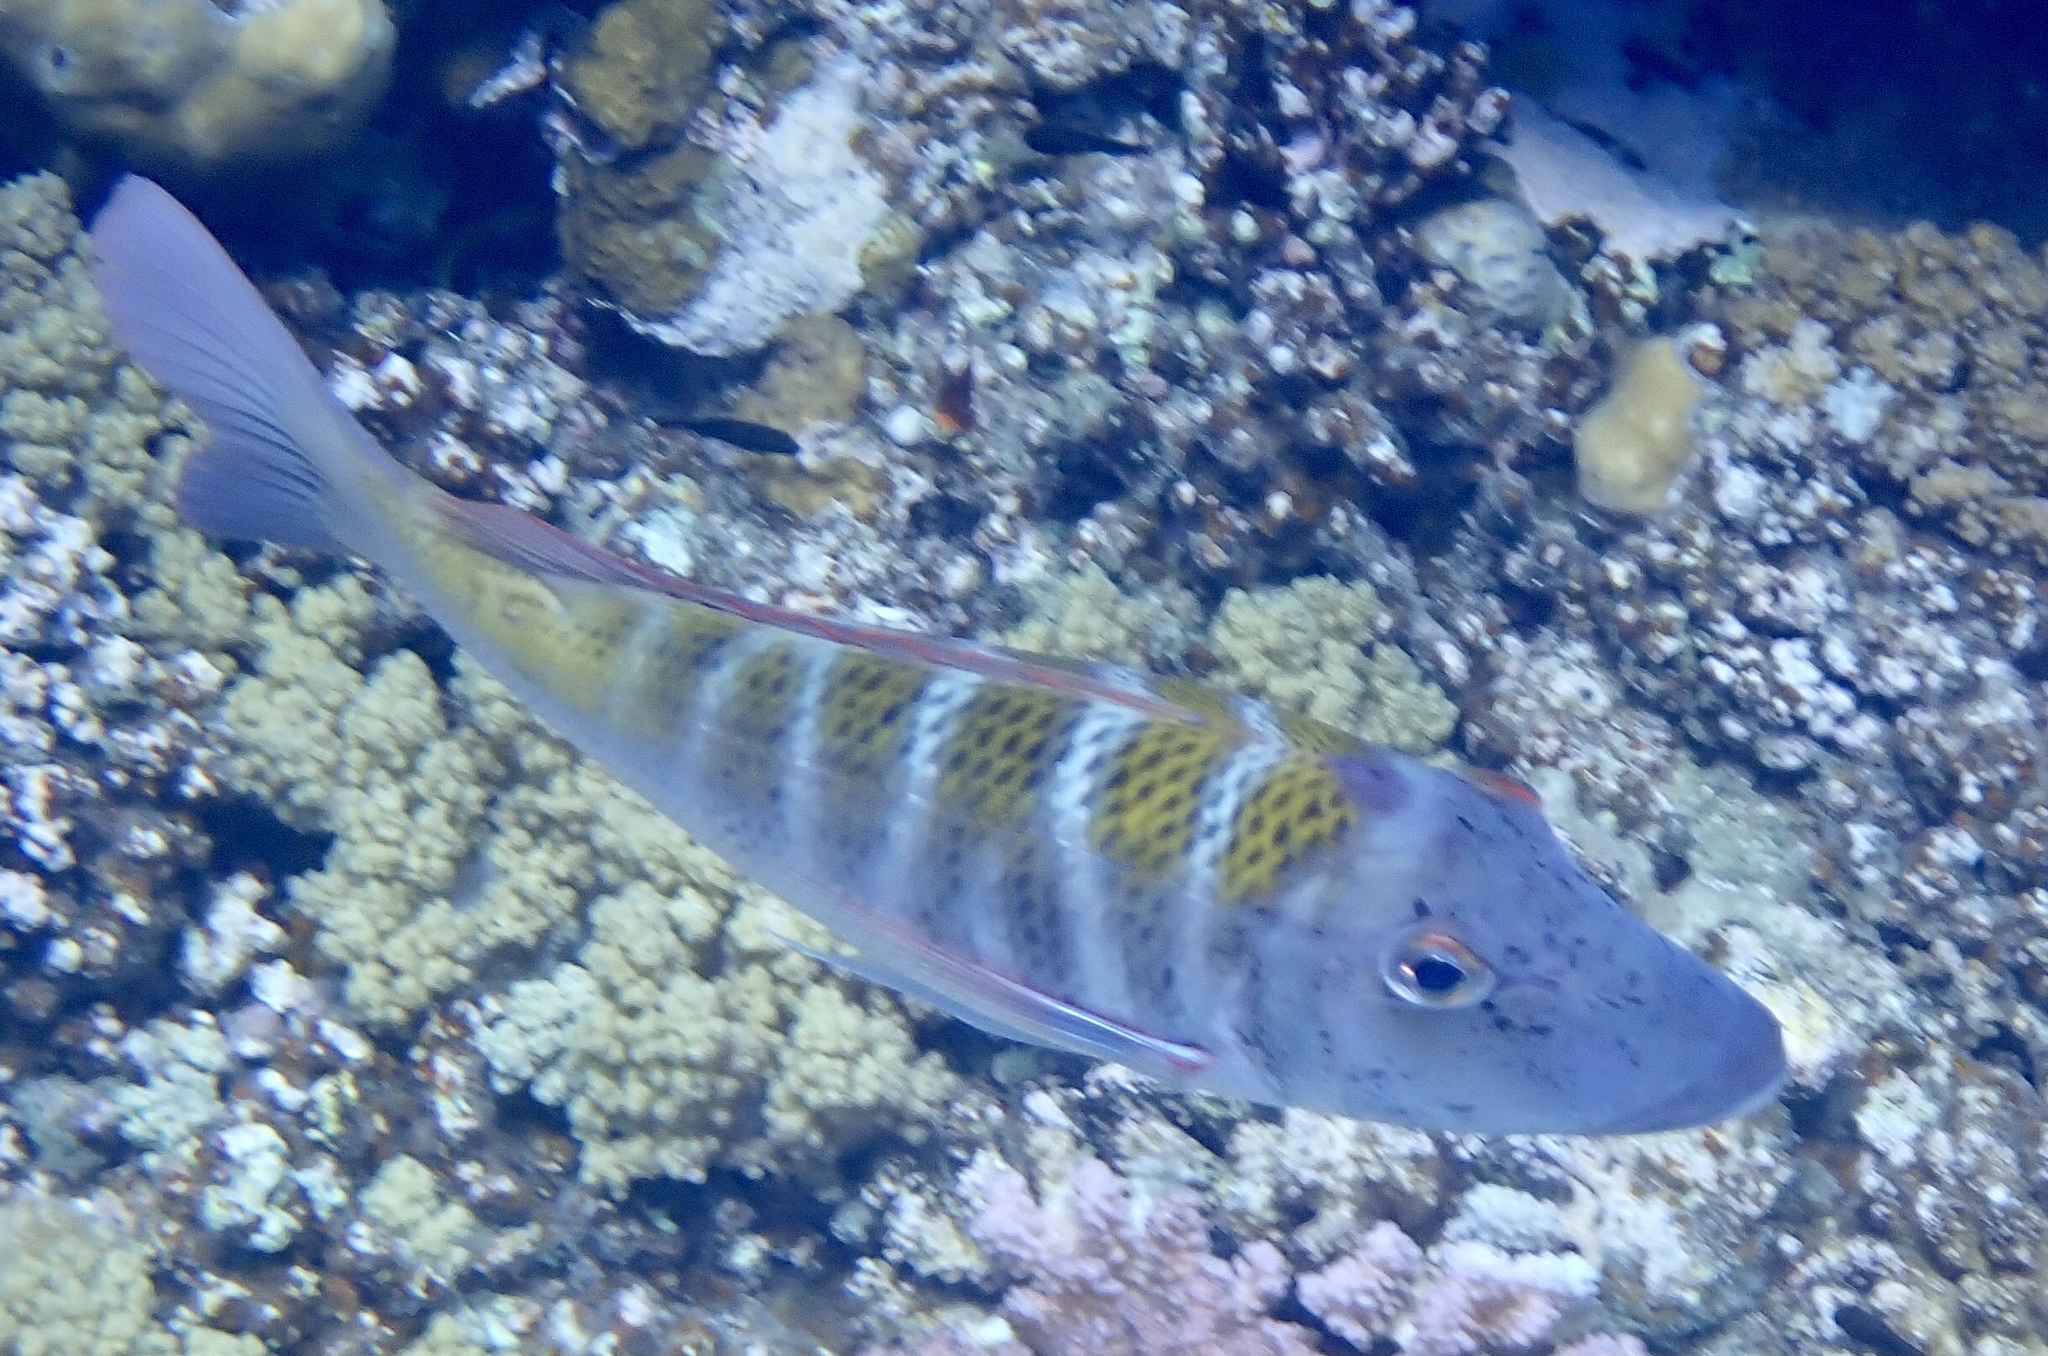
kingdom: Animalia
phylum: Chordata
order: Perciformes
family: Lethrinidae
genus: Lethrinus
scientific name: Lethrinus mahsena
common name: Sky emperor
